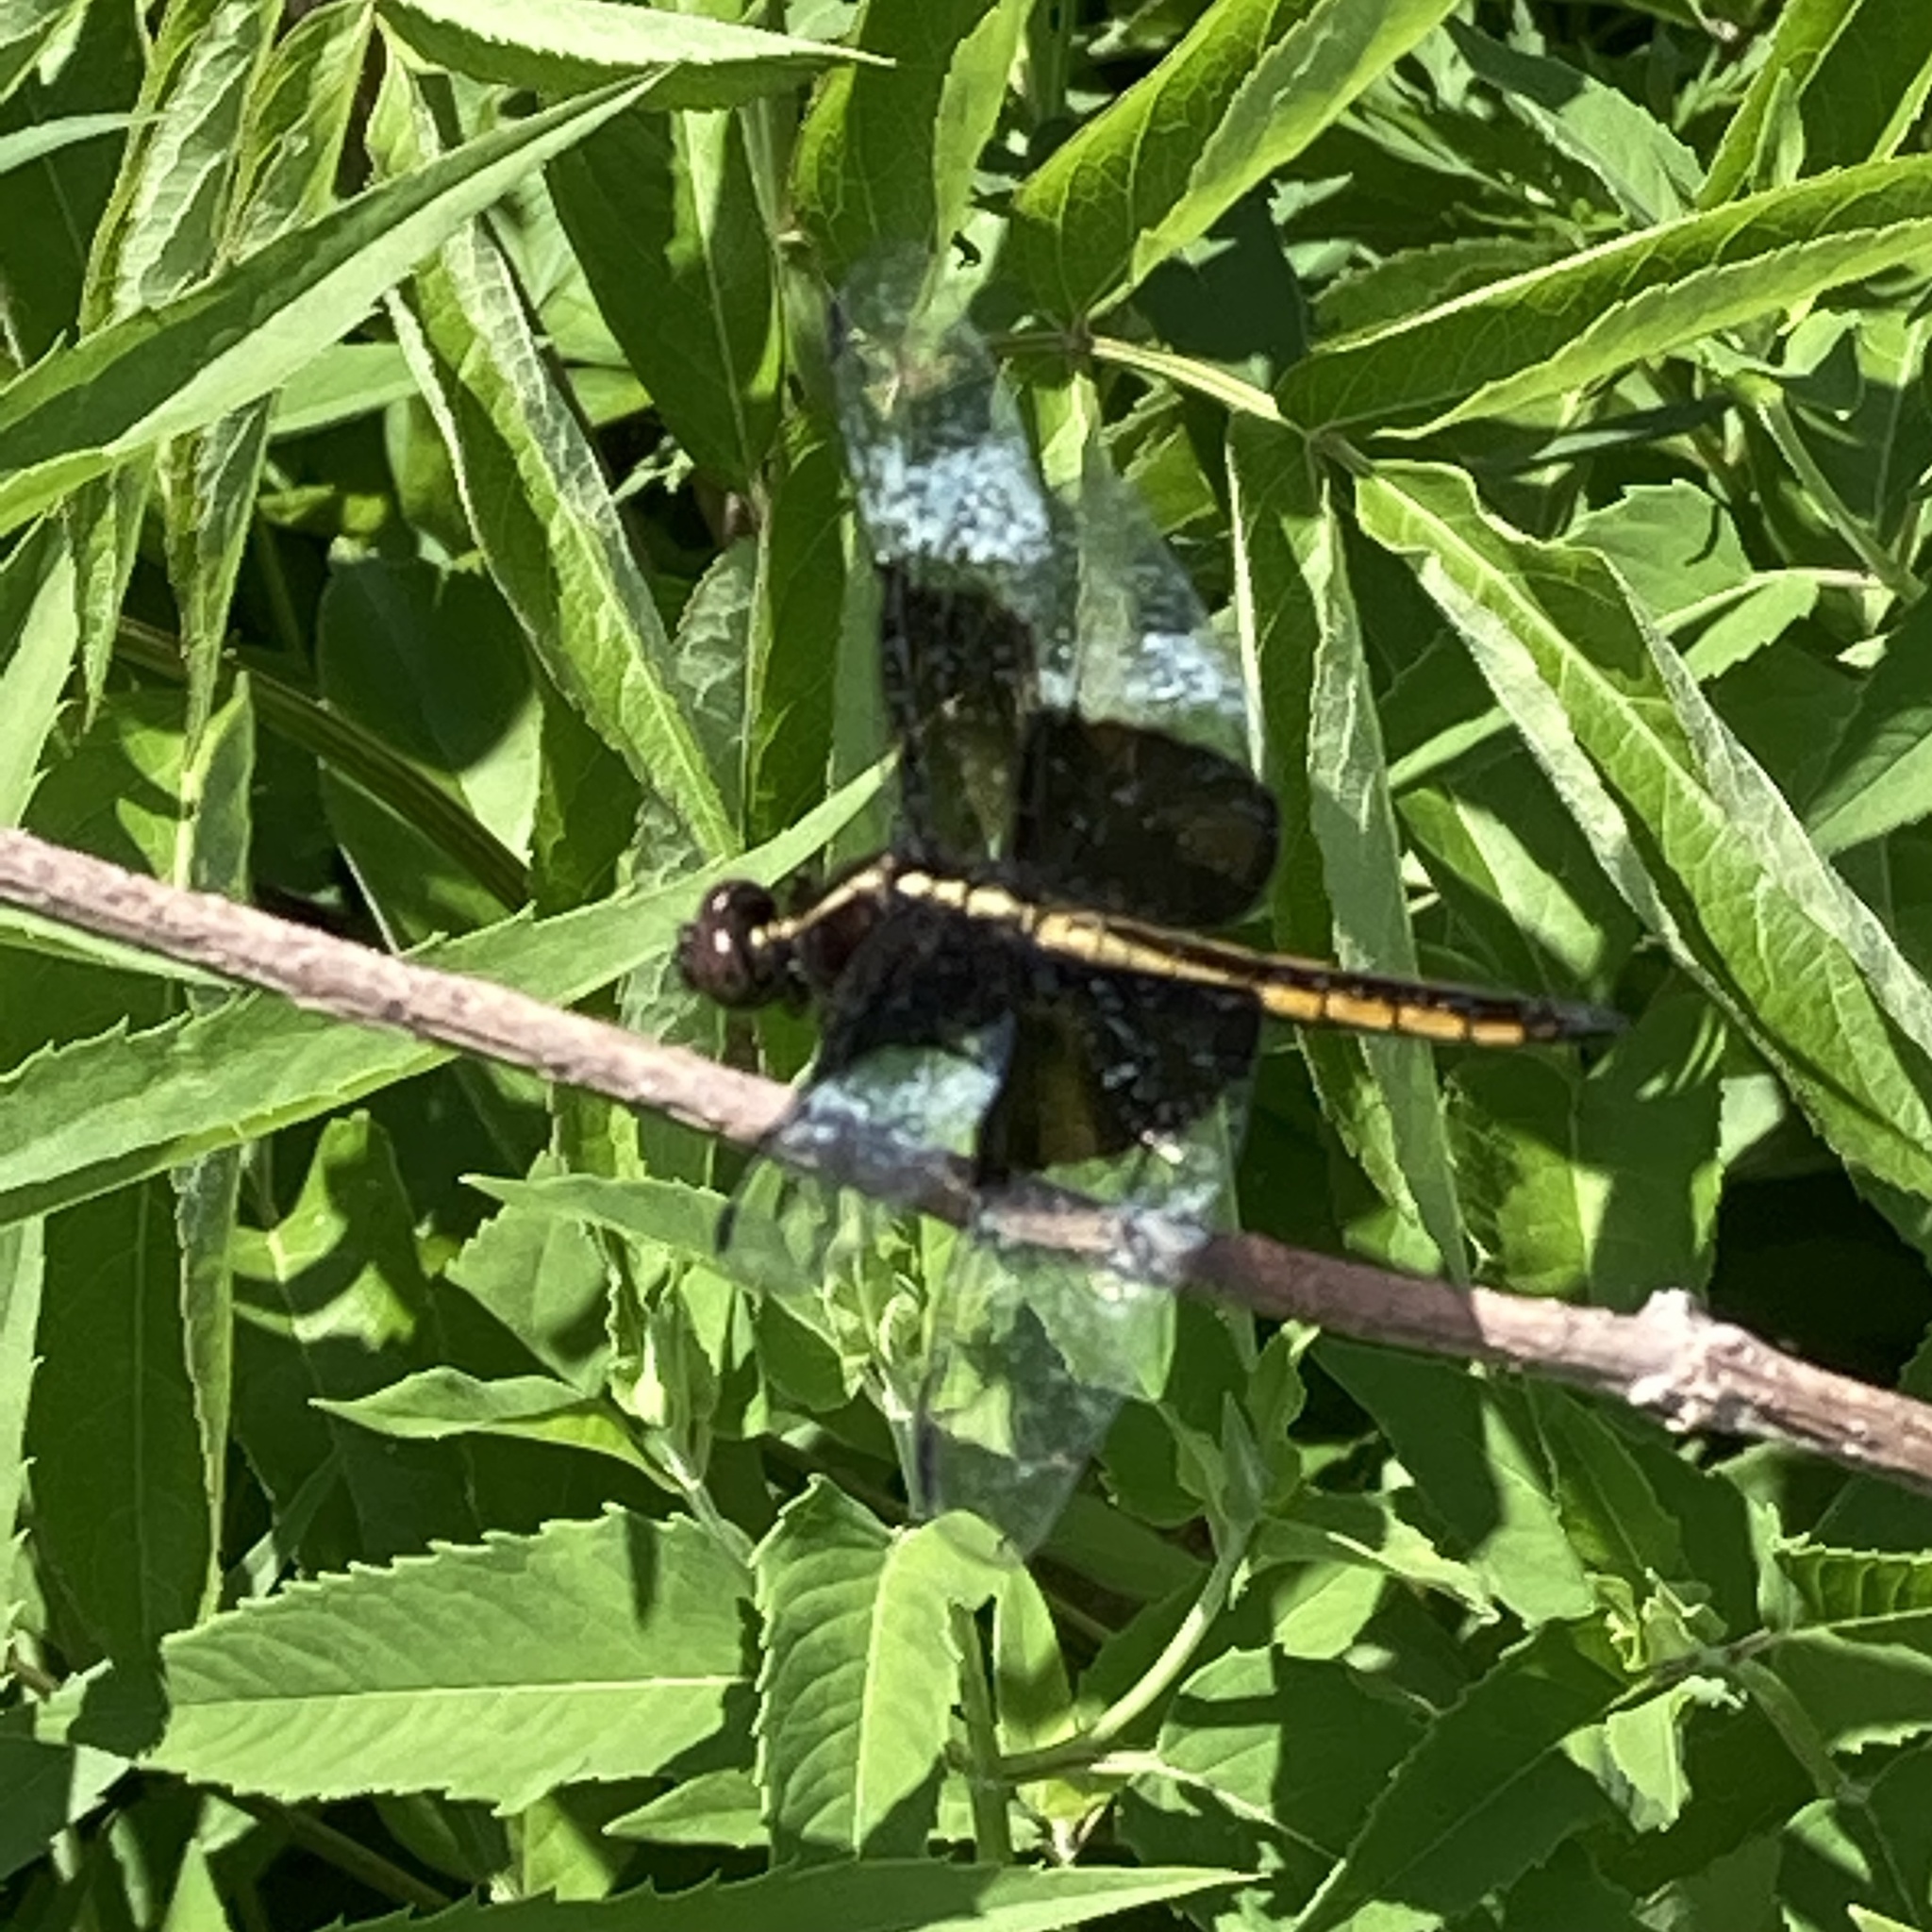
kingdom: Animalia
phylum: Arthropoda
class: Insecta
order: Odonata
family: Libellulidae
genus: Libellula
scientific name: Libellula luctuosa
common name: Widow skimmer
